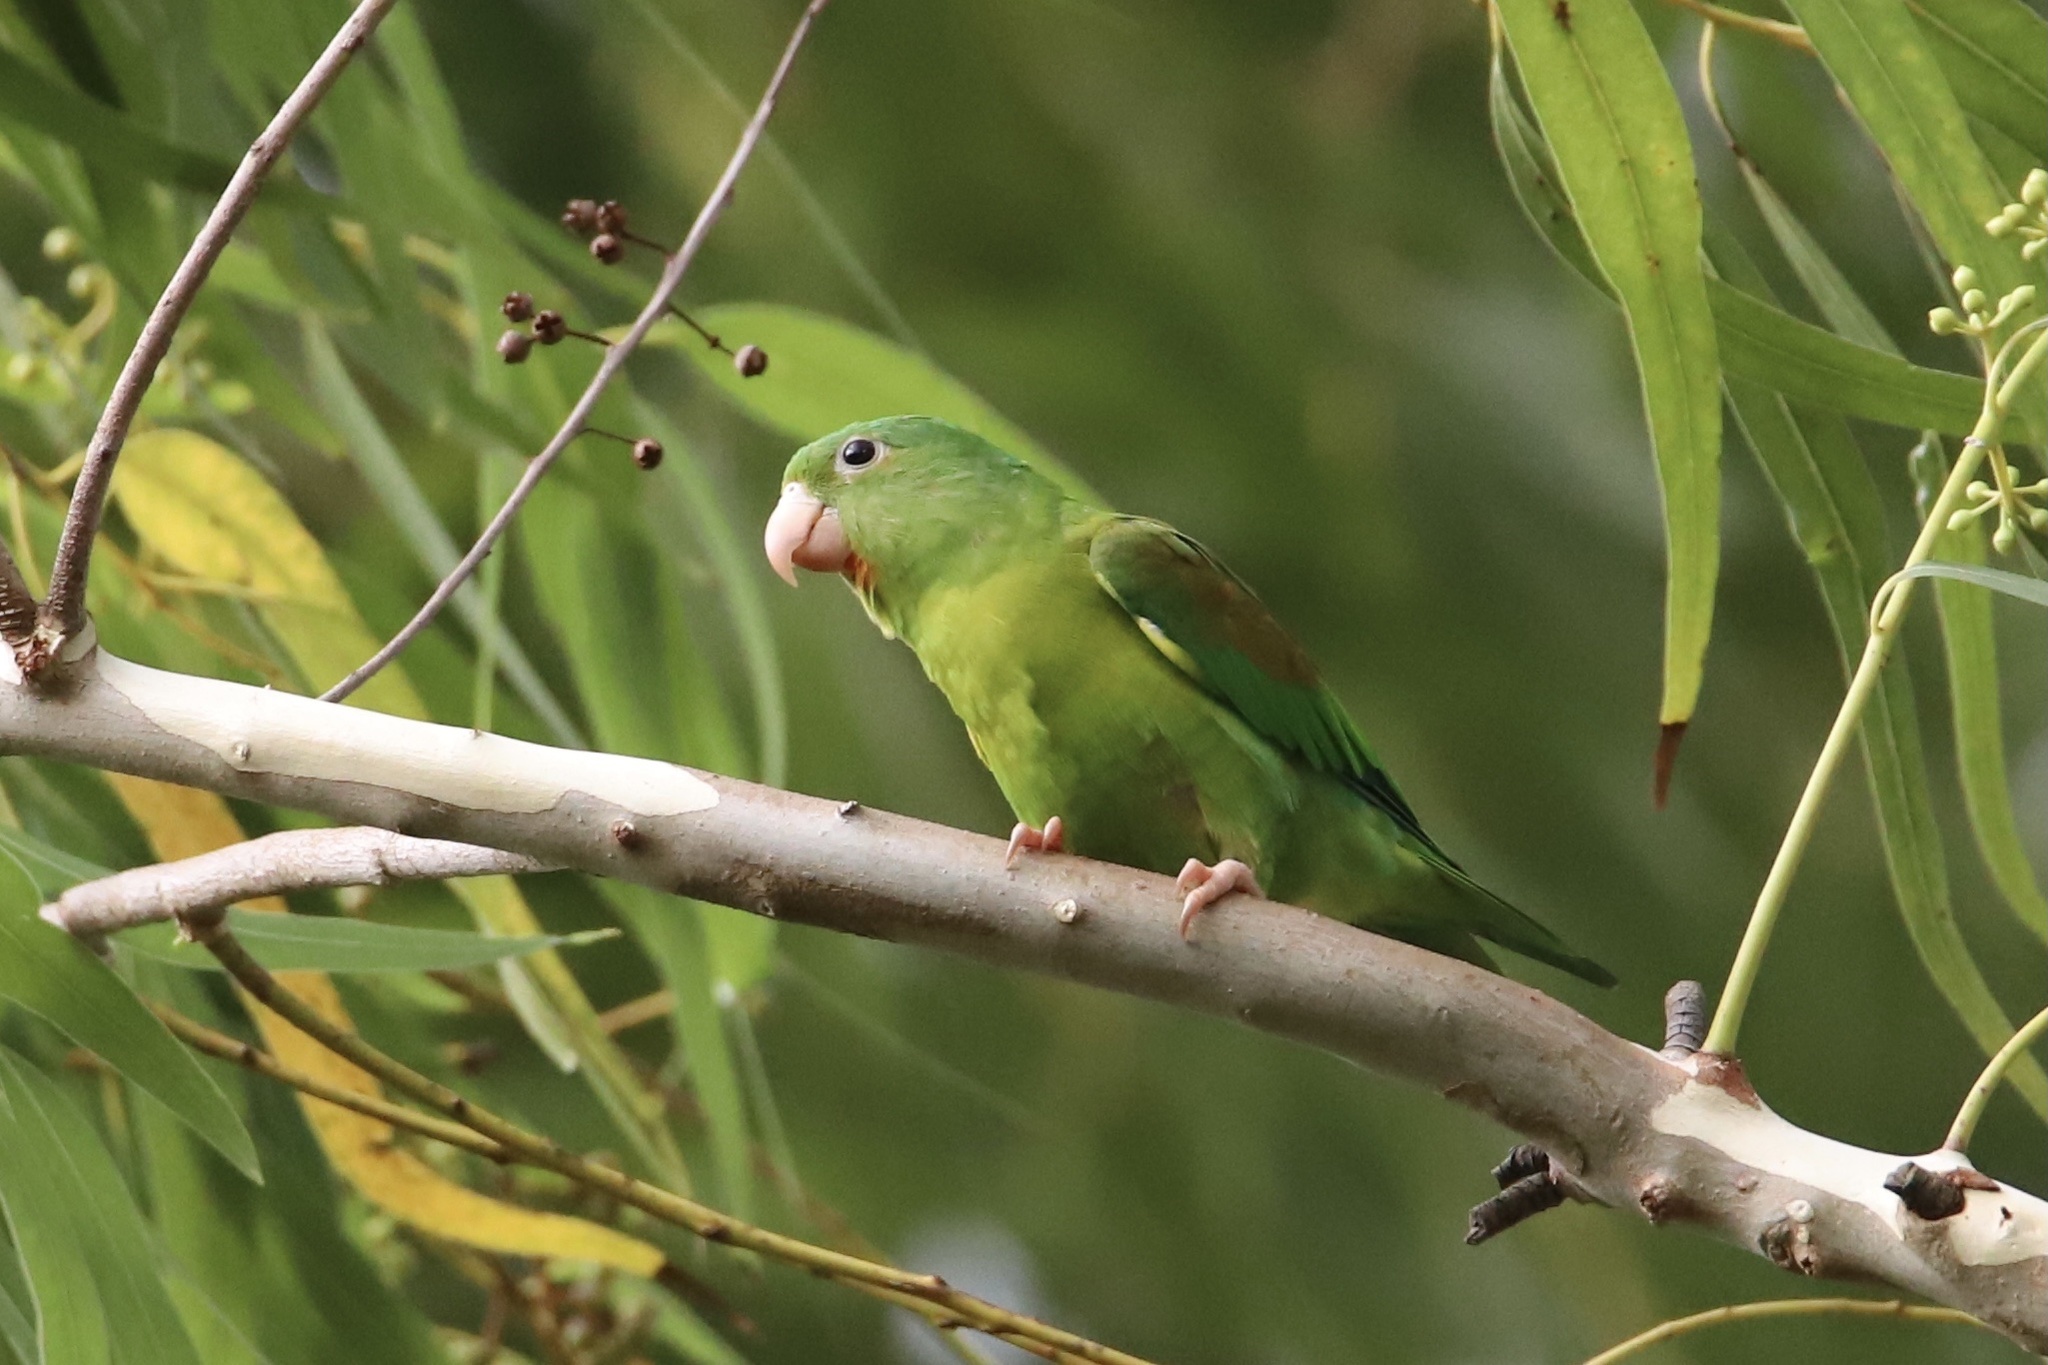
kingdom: Animalia
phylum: Chordata
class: Aves
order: Psittaciformes
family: Psittacidae
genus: Brotogeris
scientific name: Brotogeris jugularis
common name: Orange-chinned parakeet
